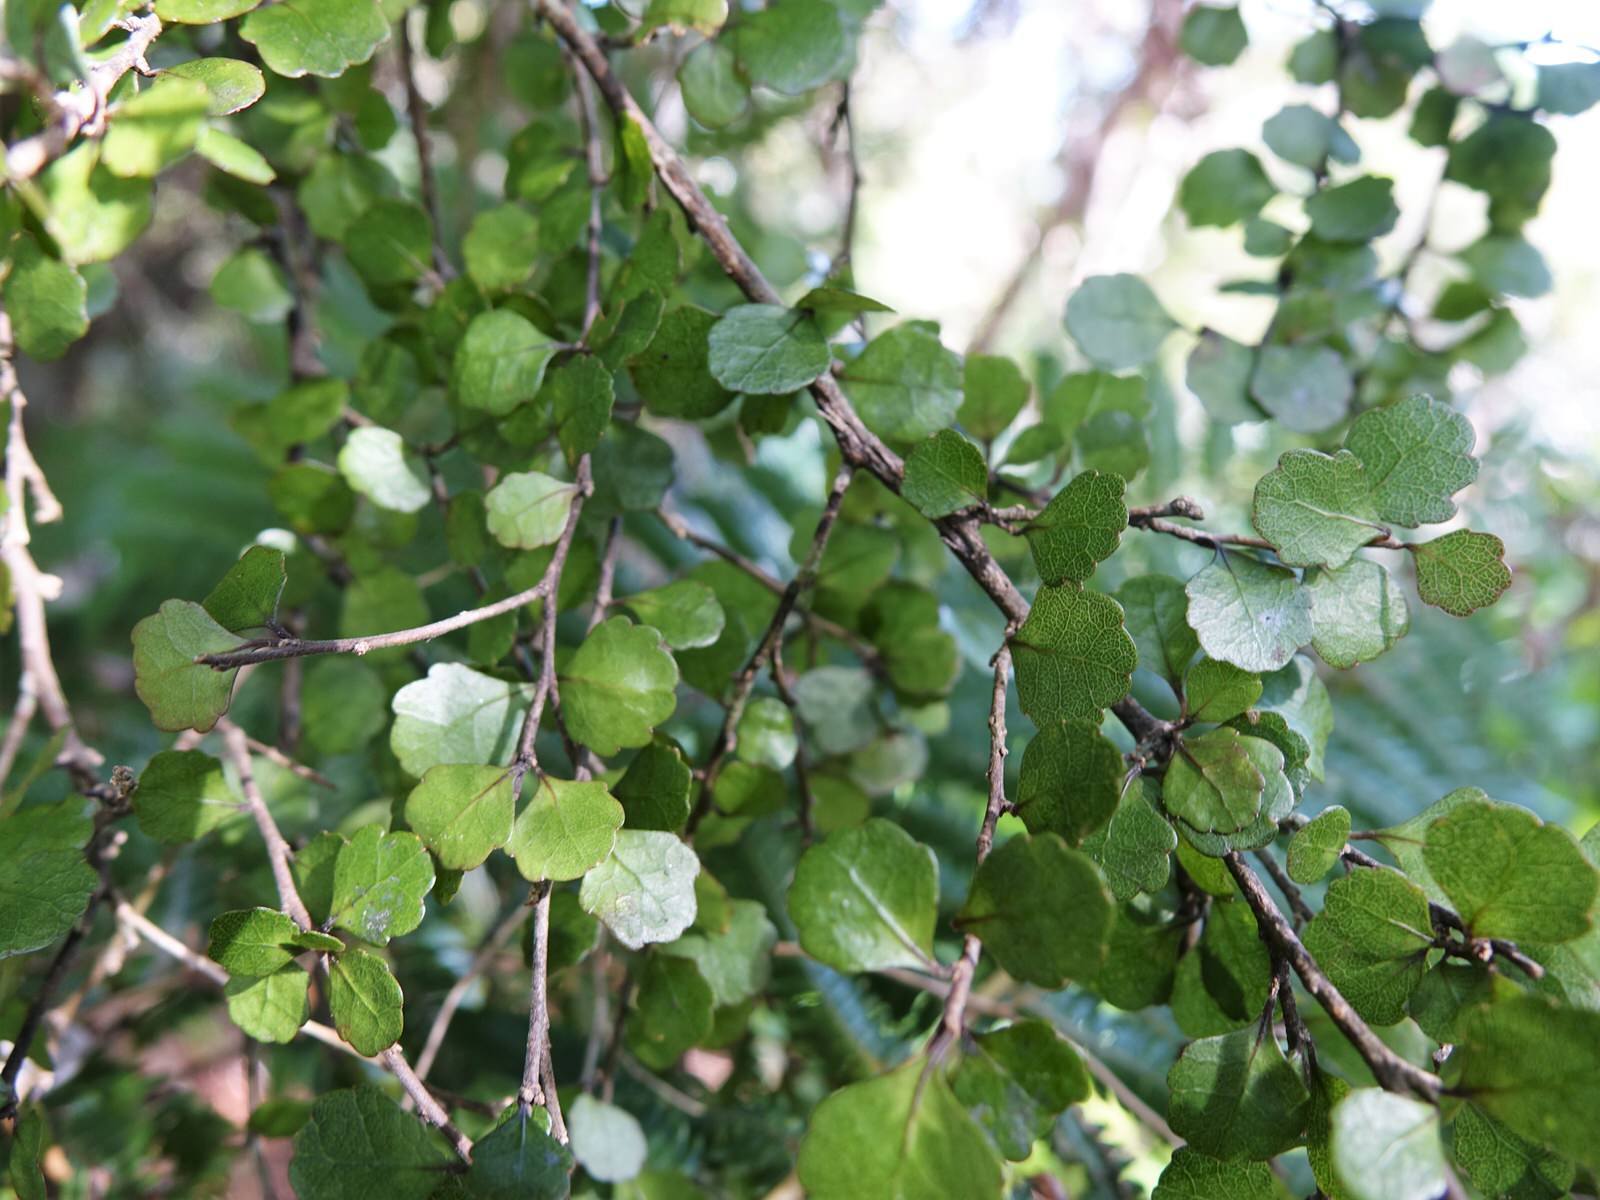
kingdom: Plantae
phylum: Tracheophyta
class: Magnoliopsida
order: Malpighiales
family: Violaceae
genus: Melicytus
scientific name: Melicytus micranthus
